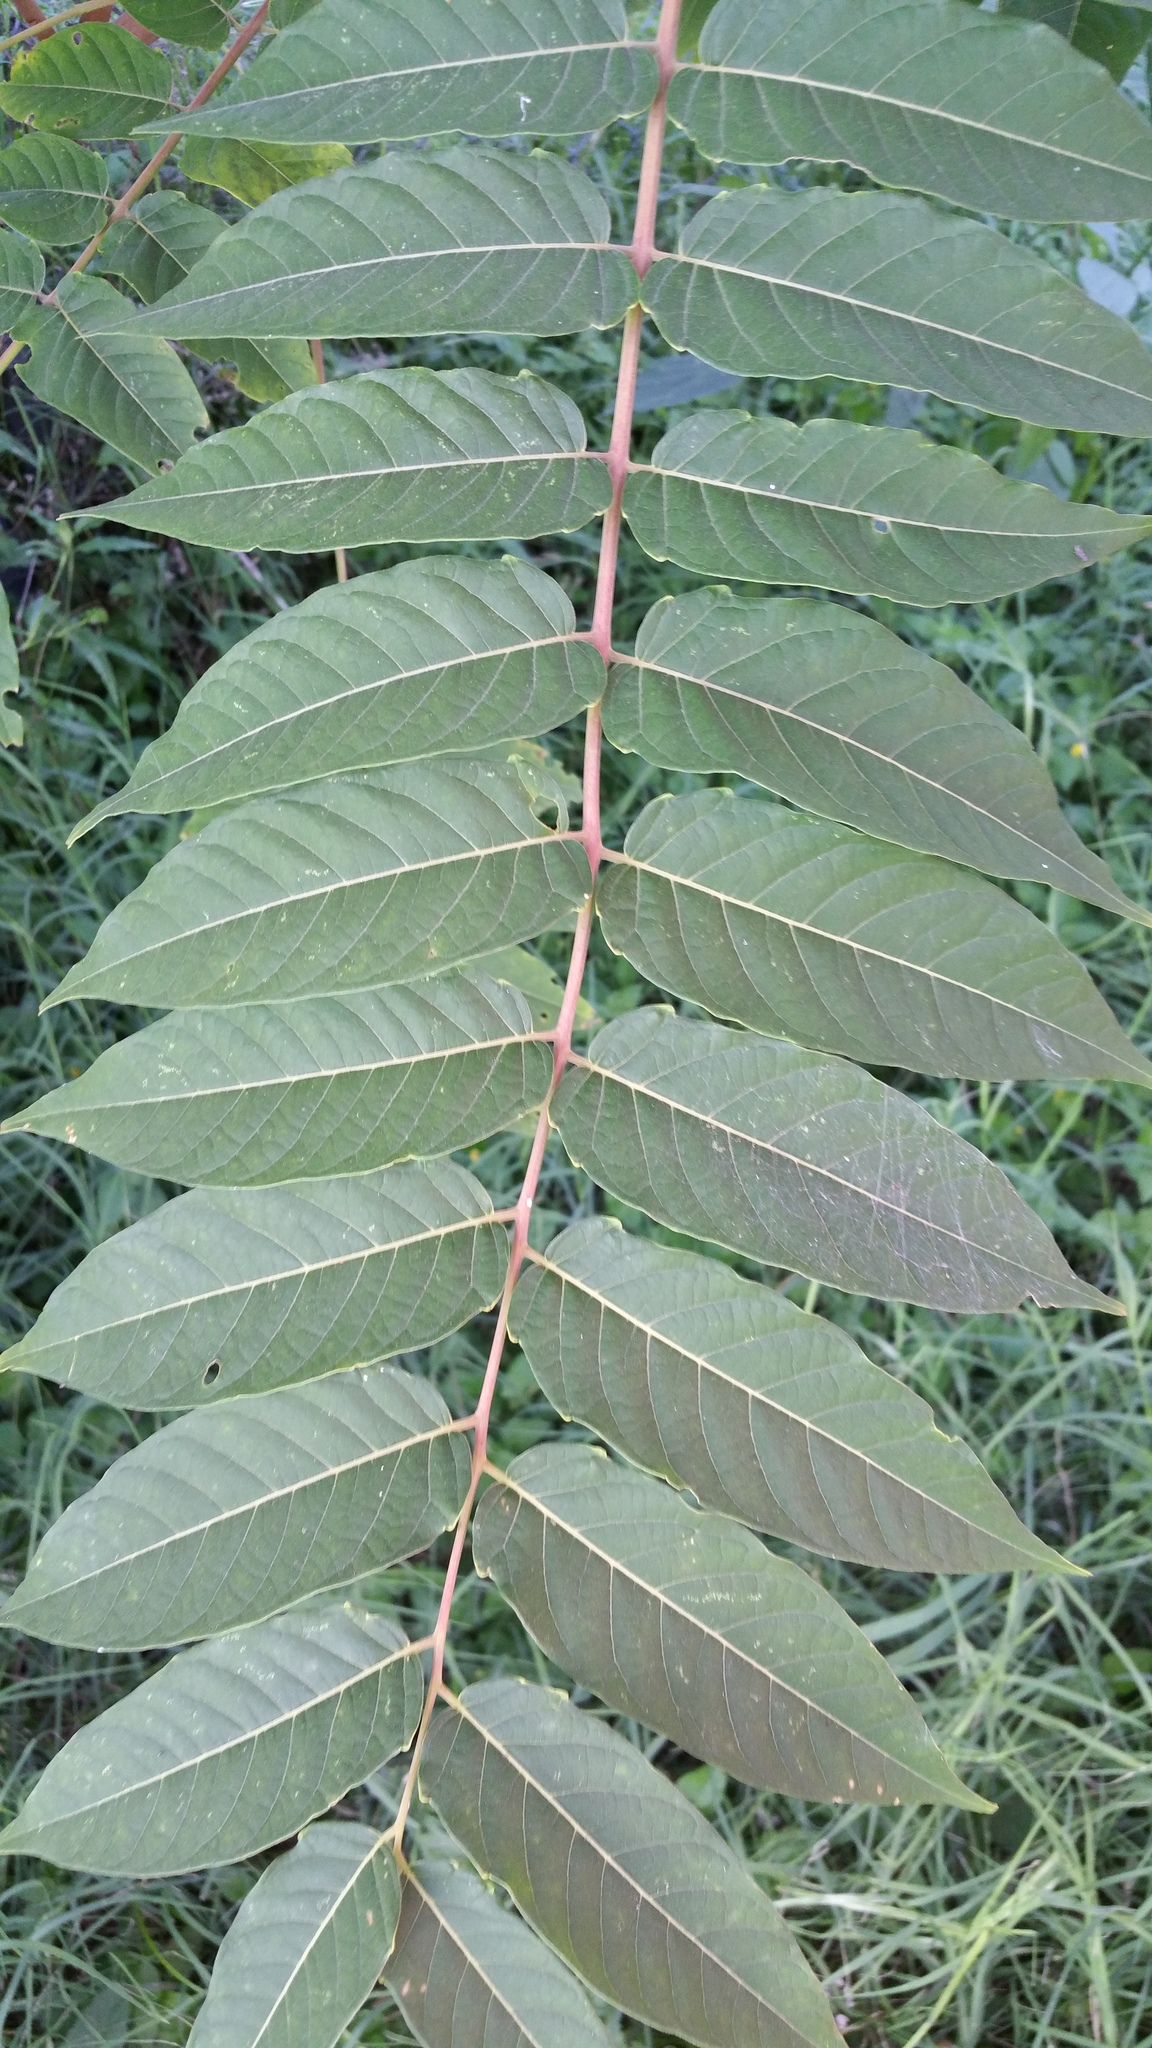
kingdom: Plantae
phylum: Tracheophyta
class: Magnoliopsida
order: Sapindales
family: Simaroubaceae
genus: Ailanthus
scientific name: Ailanthus altissima
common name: Tree-of-heaven
